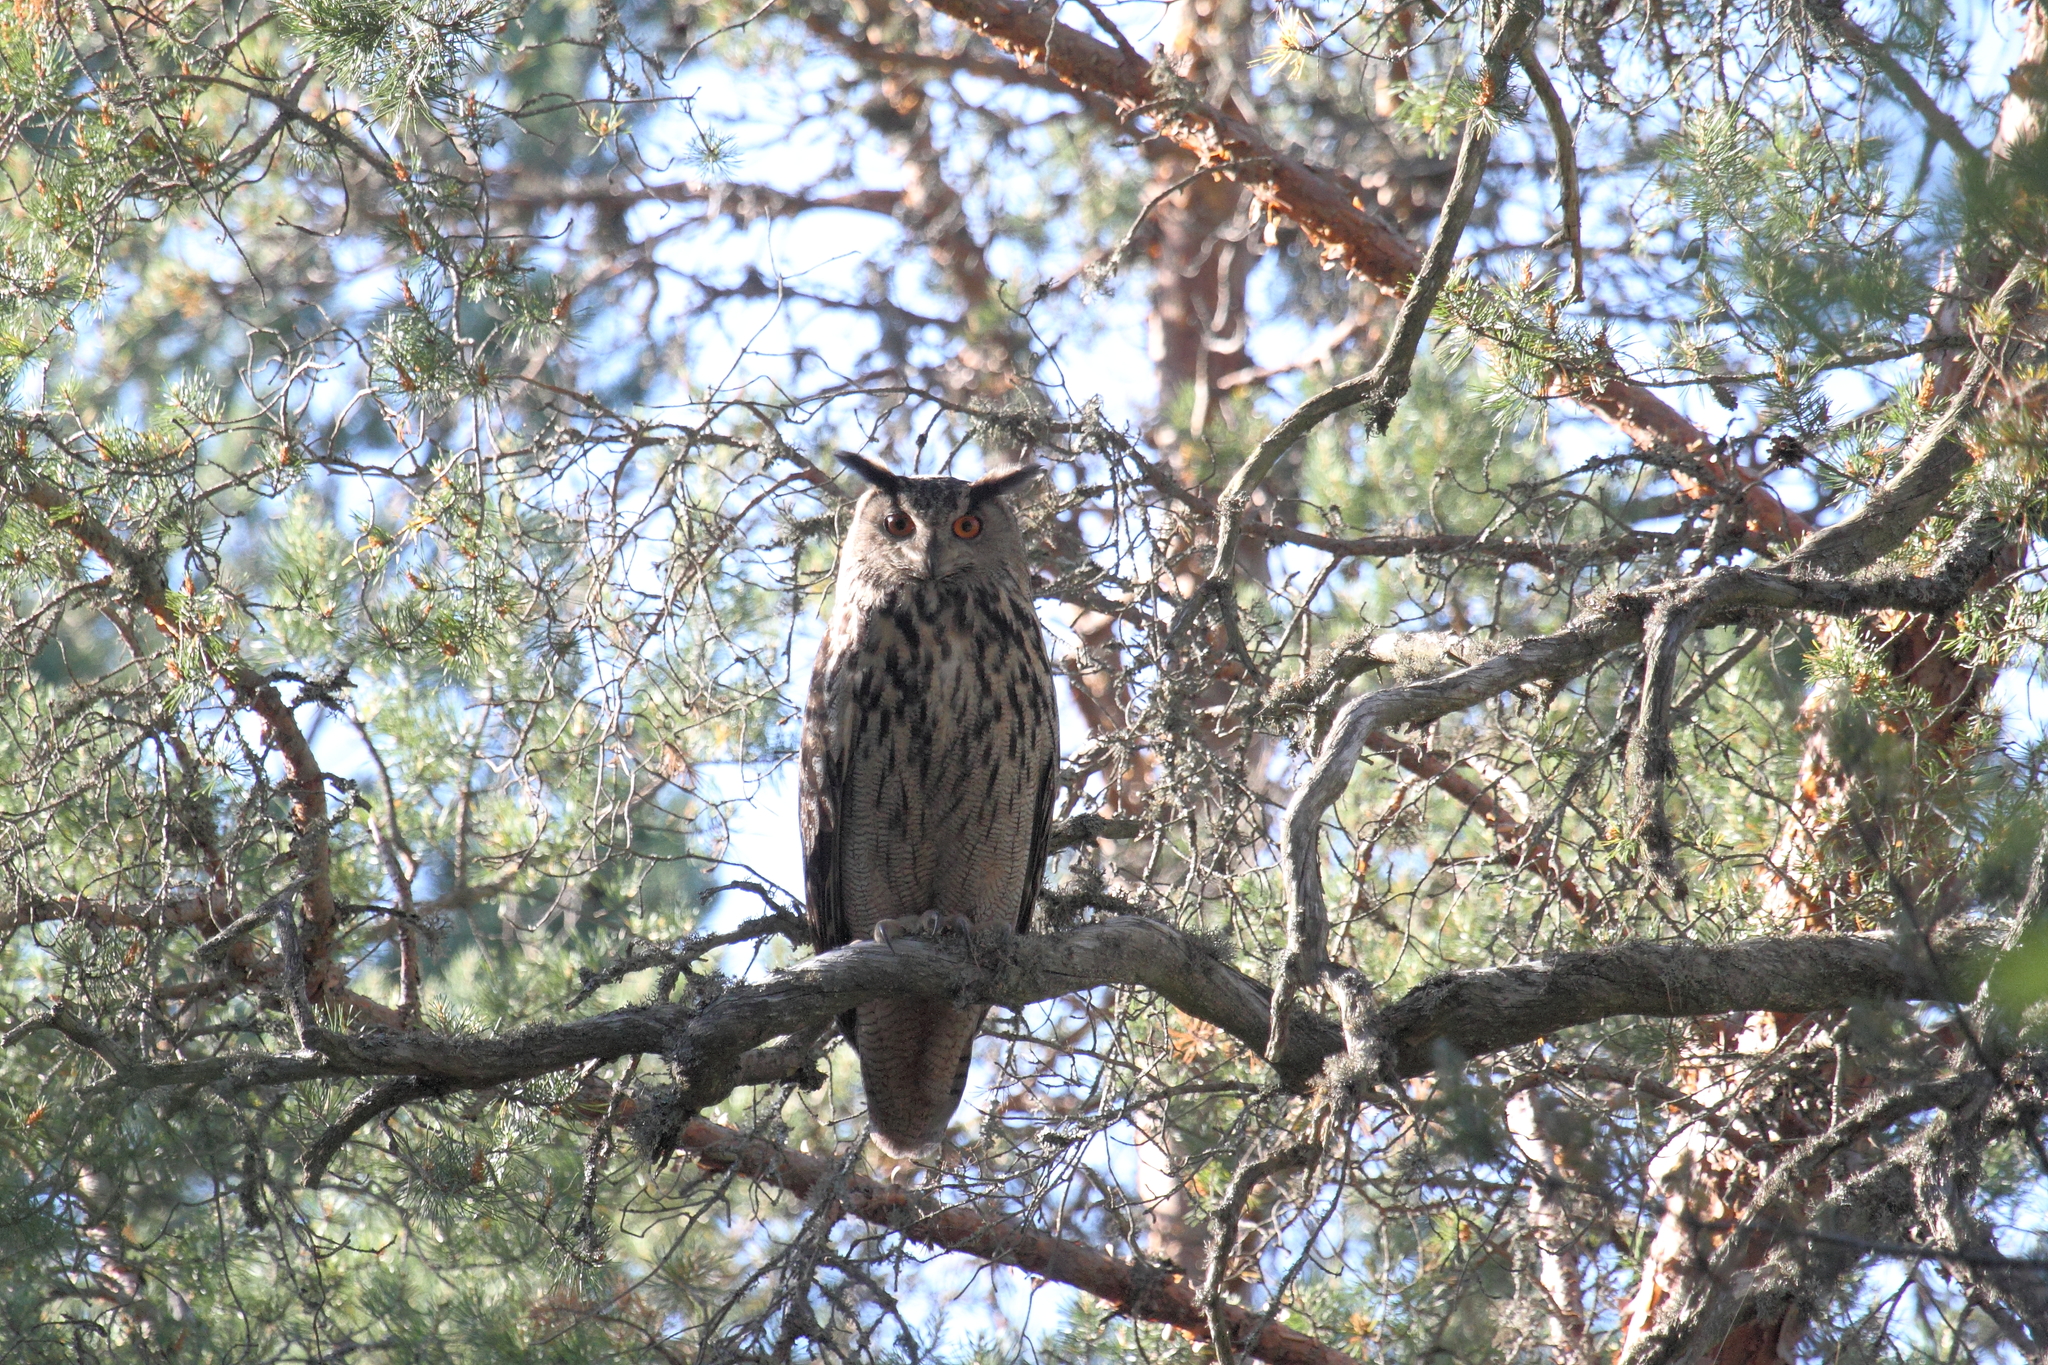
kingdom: Animalia
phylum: Chordata
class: Aves
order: Strigiformes
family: Strigidae
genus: Bubo
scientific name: Bubo bubo
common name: Eurasian eagle-owl
